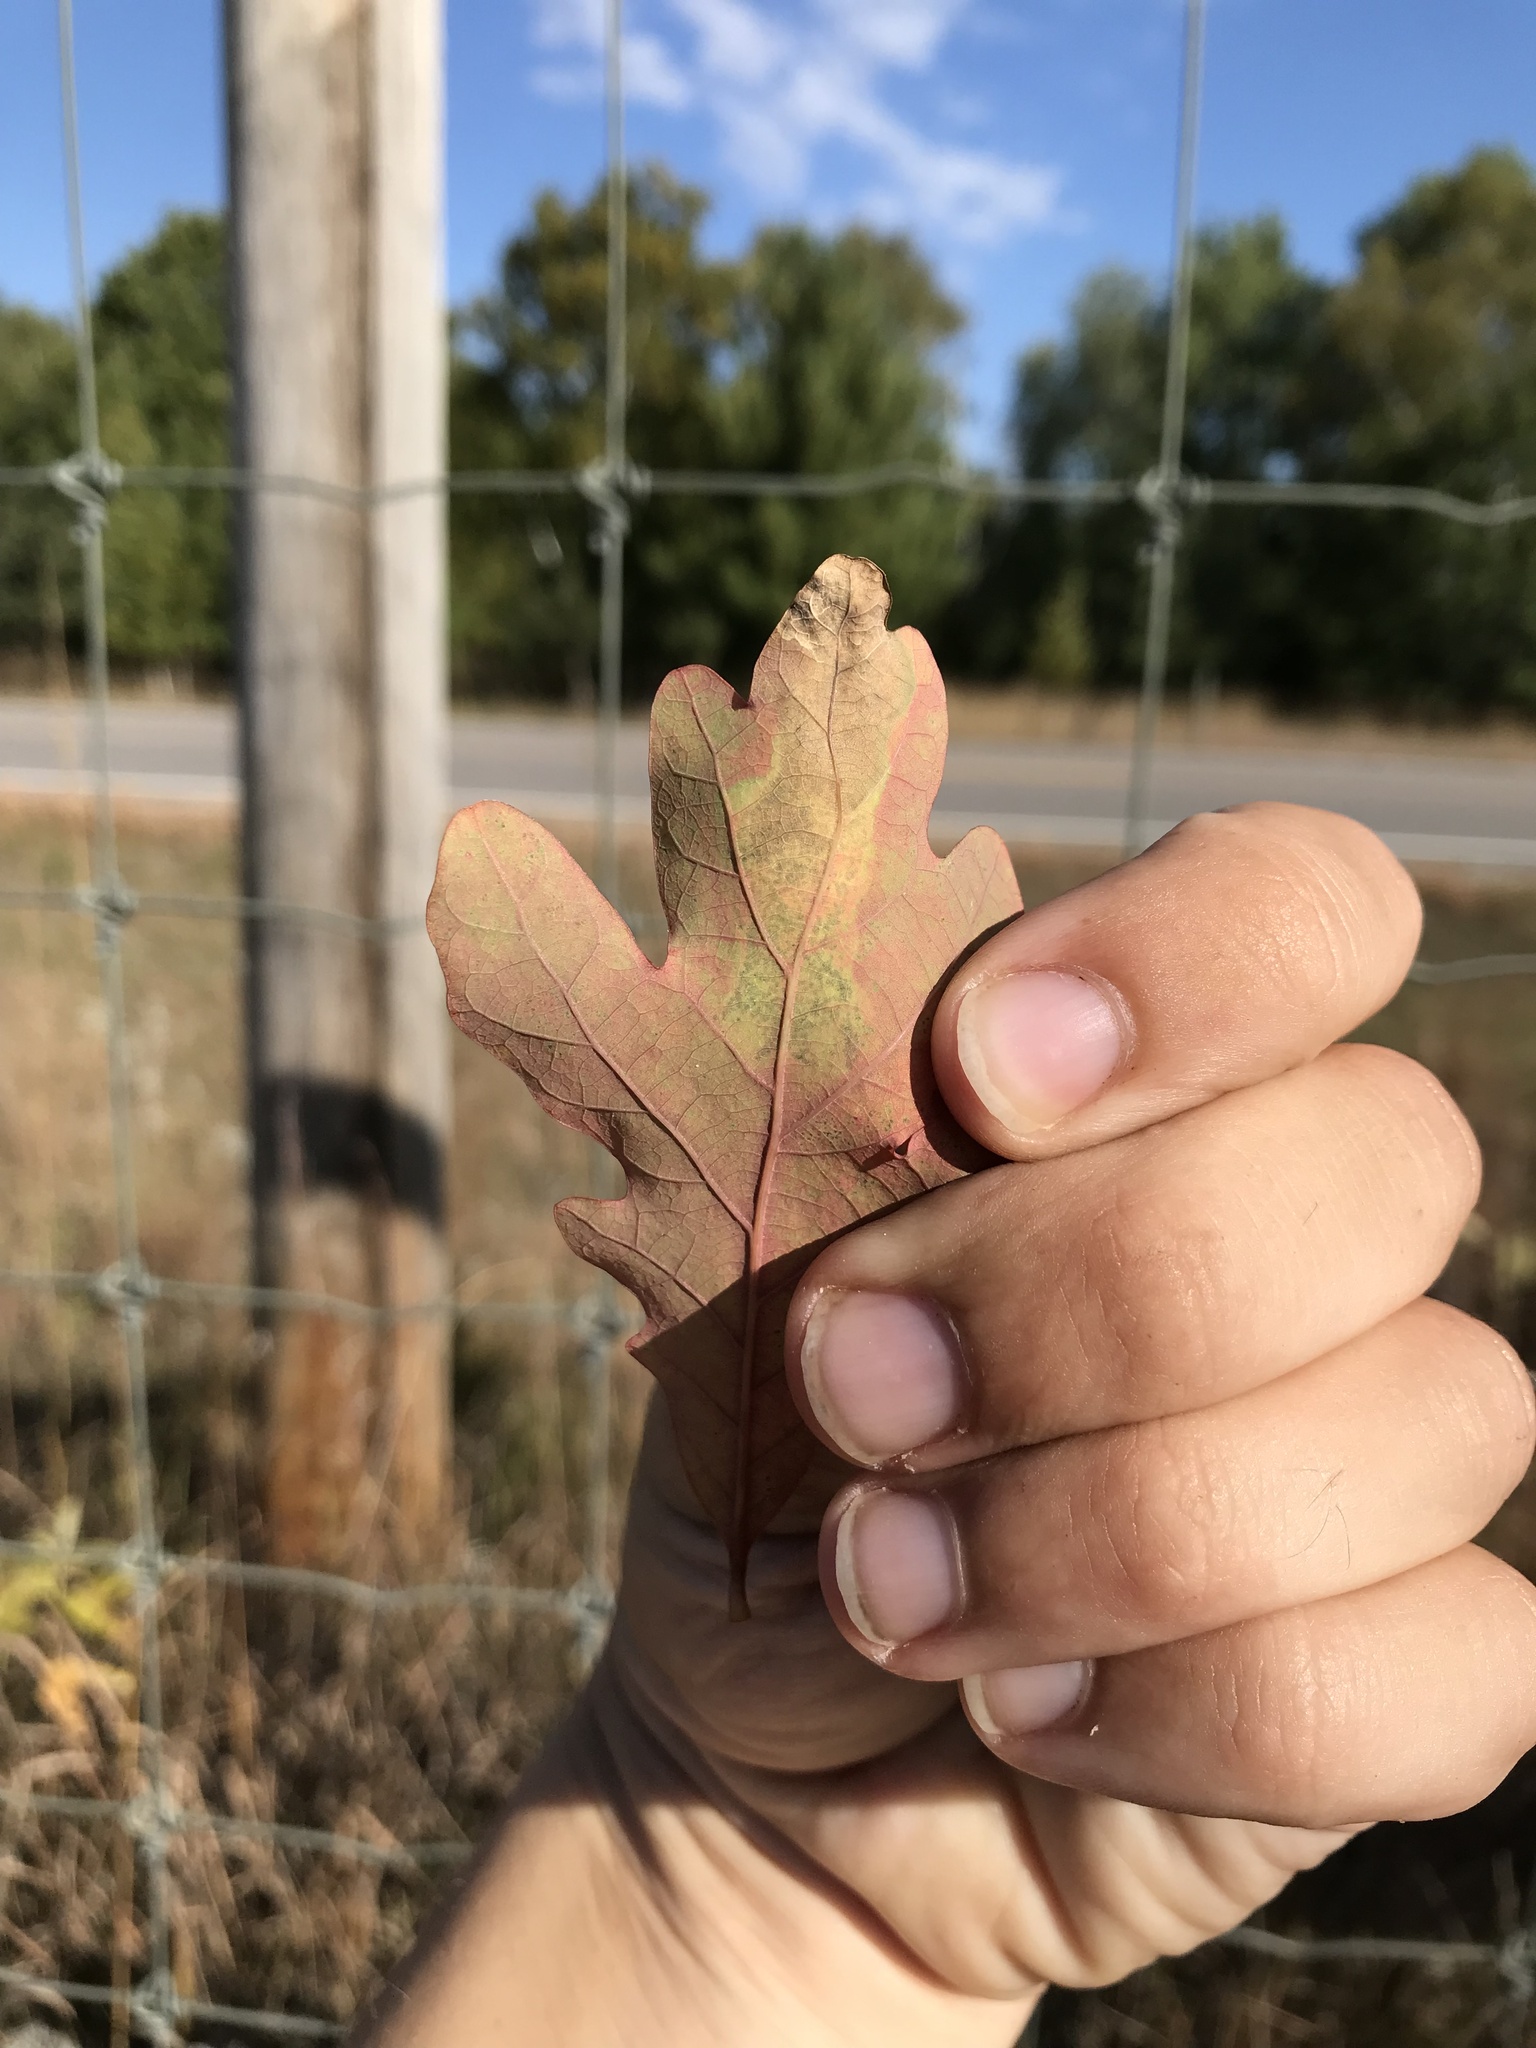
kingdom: Animalia
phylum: Arthropoda
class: Insecta
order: Lepidoptera
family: Gracillariidae
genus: Cameraria
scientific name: Cameraria
